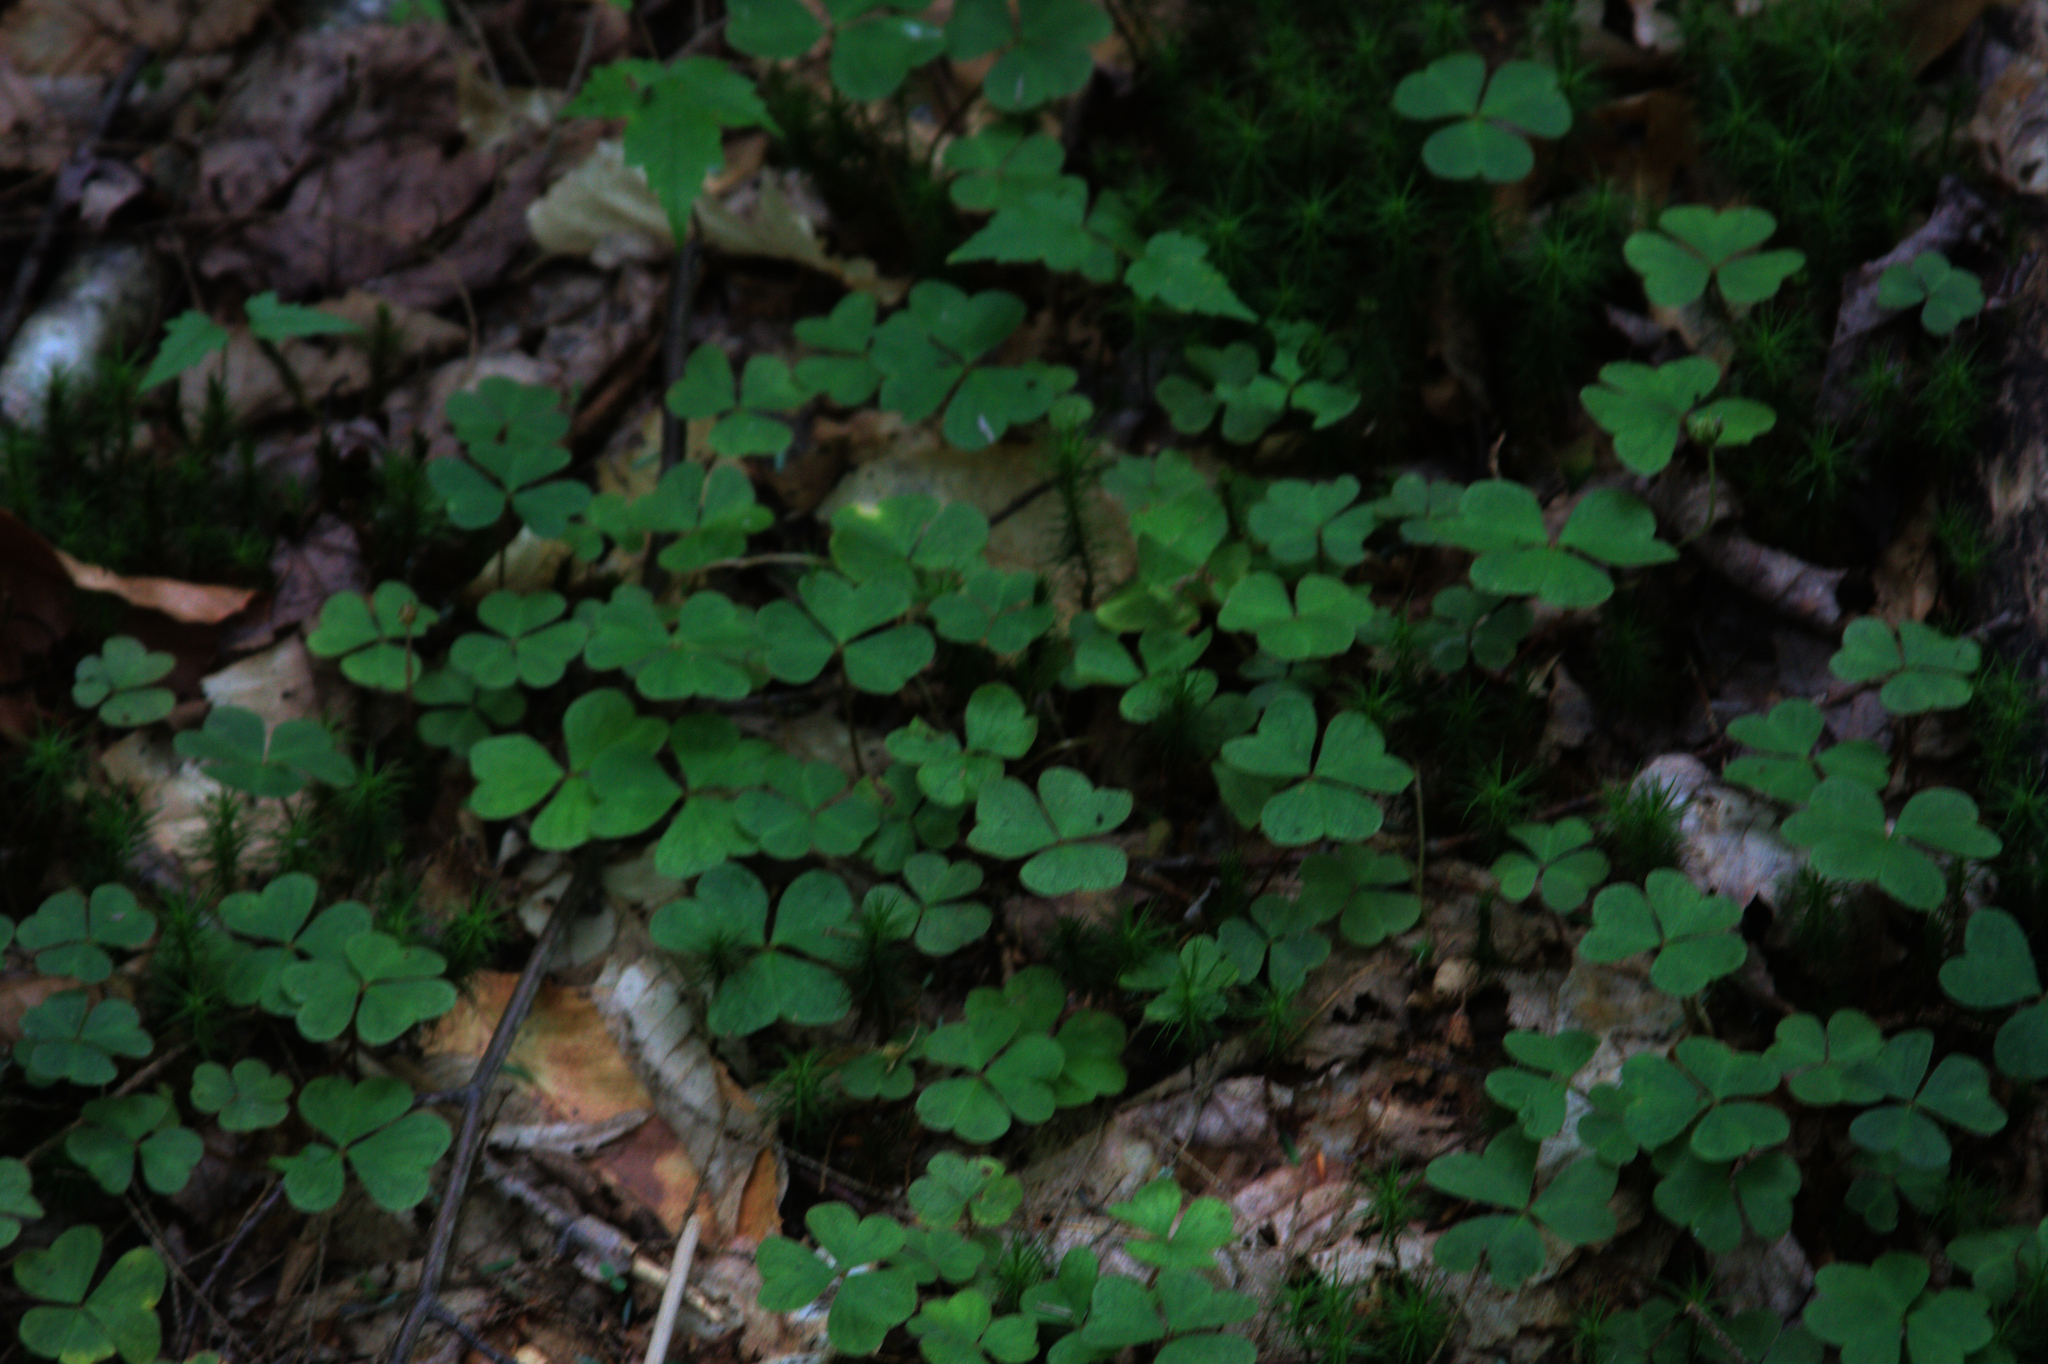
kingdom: Plantae
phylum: Tracheophyta
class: Magnoliopsida
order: Oxalidales
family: Oxalidaceae
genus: Oxalis
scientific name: Oxalis montana
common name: American wood-sorrel
